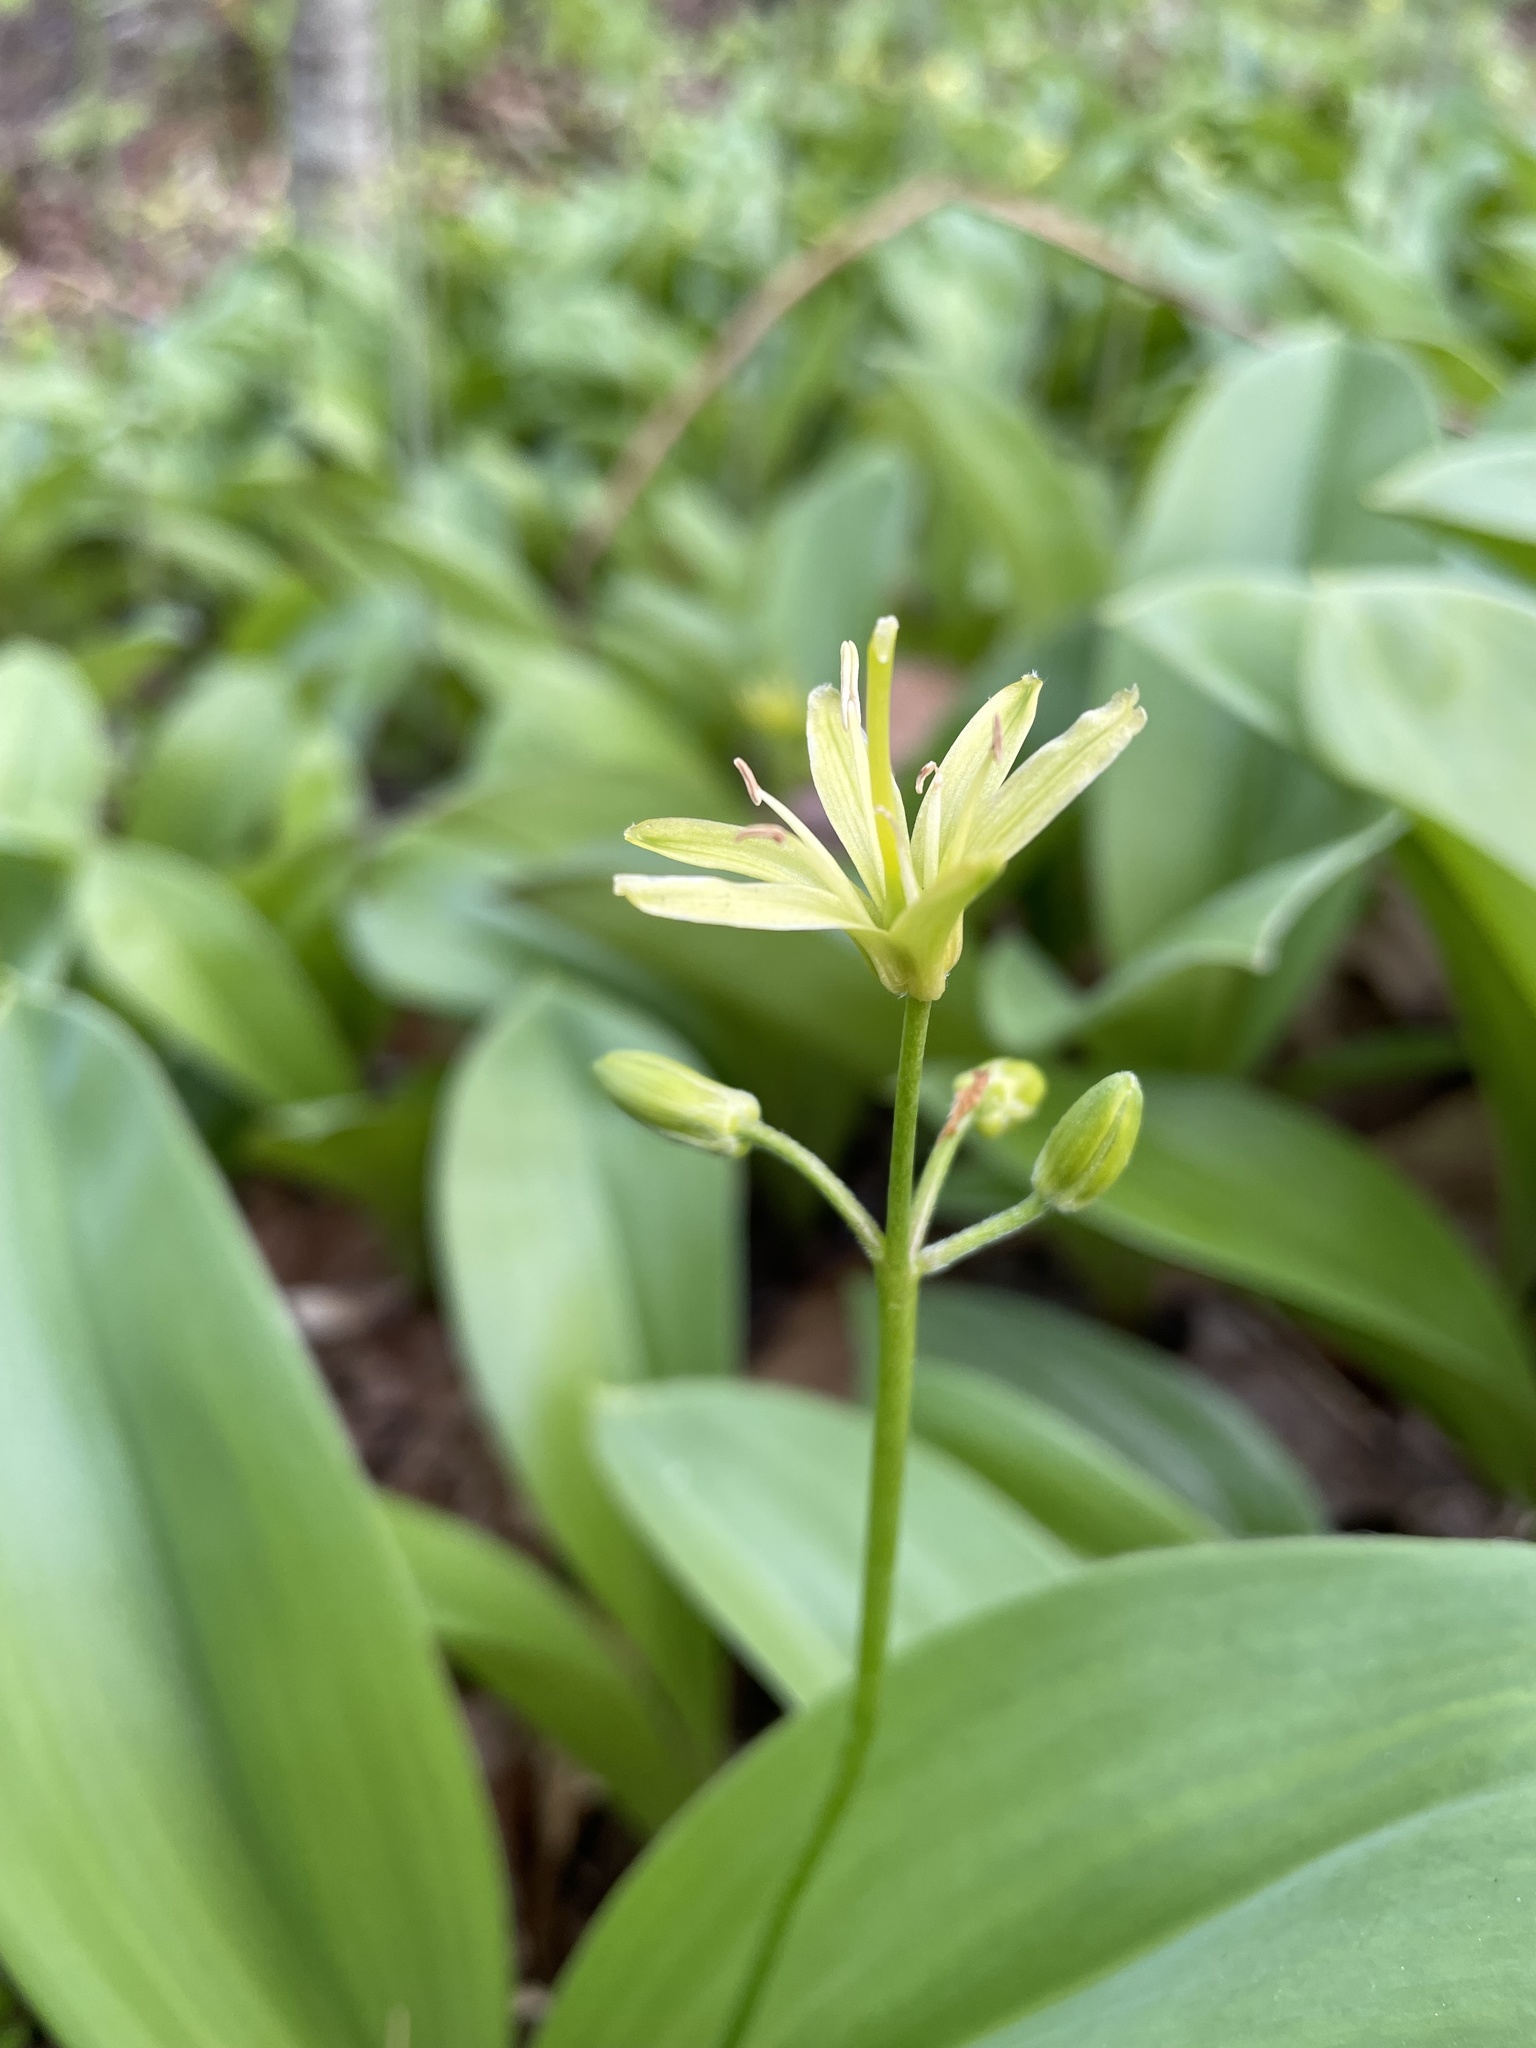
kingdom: Plantae
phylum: Tracheophyta
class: Liliopsida
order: Liliales
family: Liliaceae
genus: Clintonia
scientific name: Clintonia borealis
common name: Yellow clintonia
